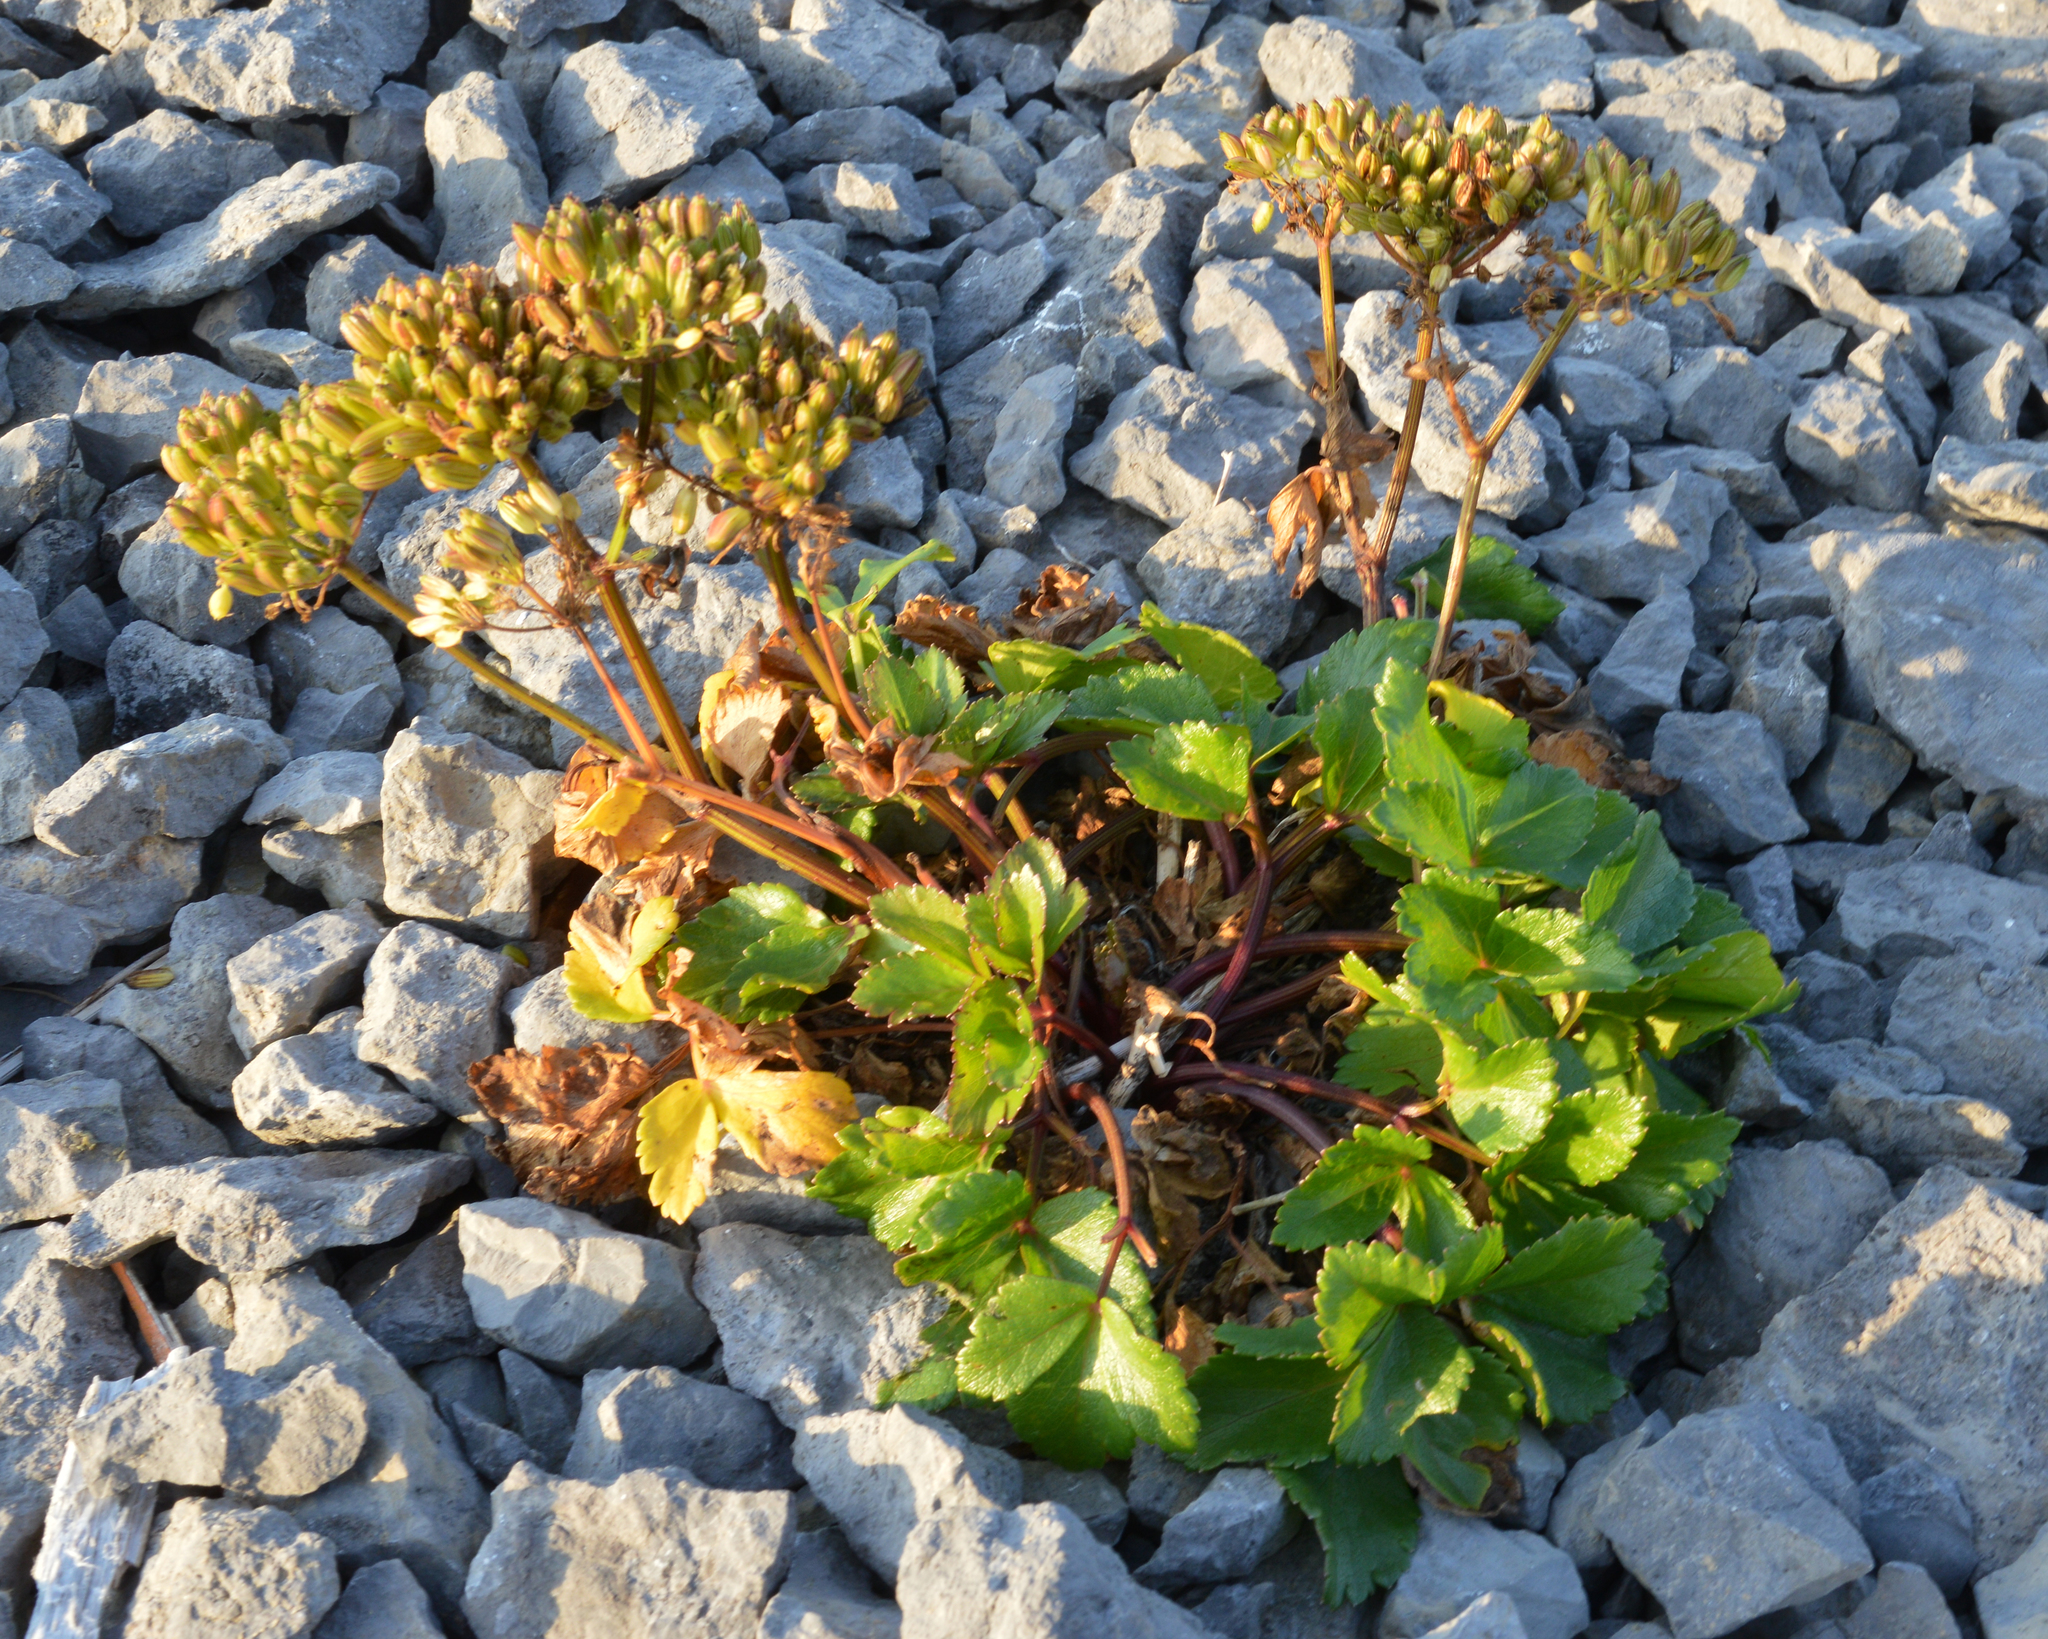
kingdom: Plantae
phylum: Tracheophyta
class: Magnoliopsida
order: Apiales
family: Apiaceae
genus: Ligusticum
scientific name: Ligusticum scothicum
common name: Beach lovage
